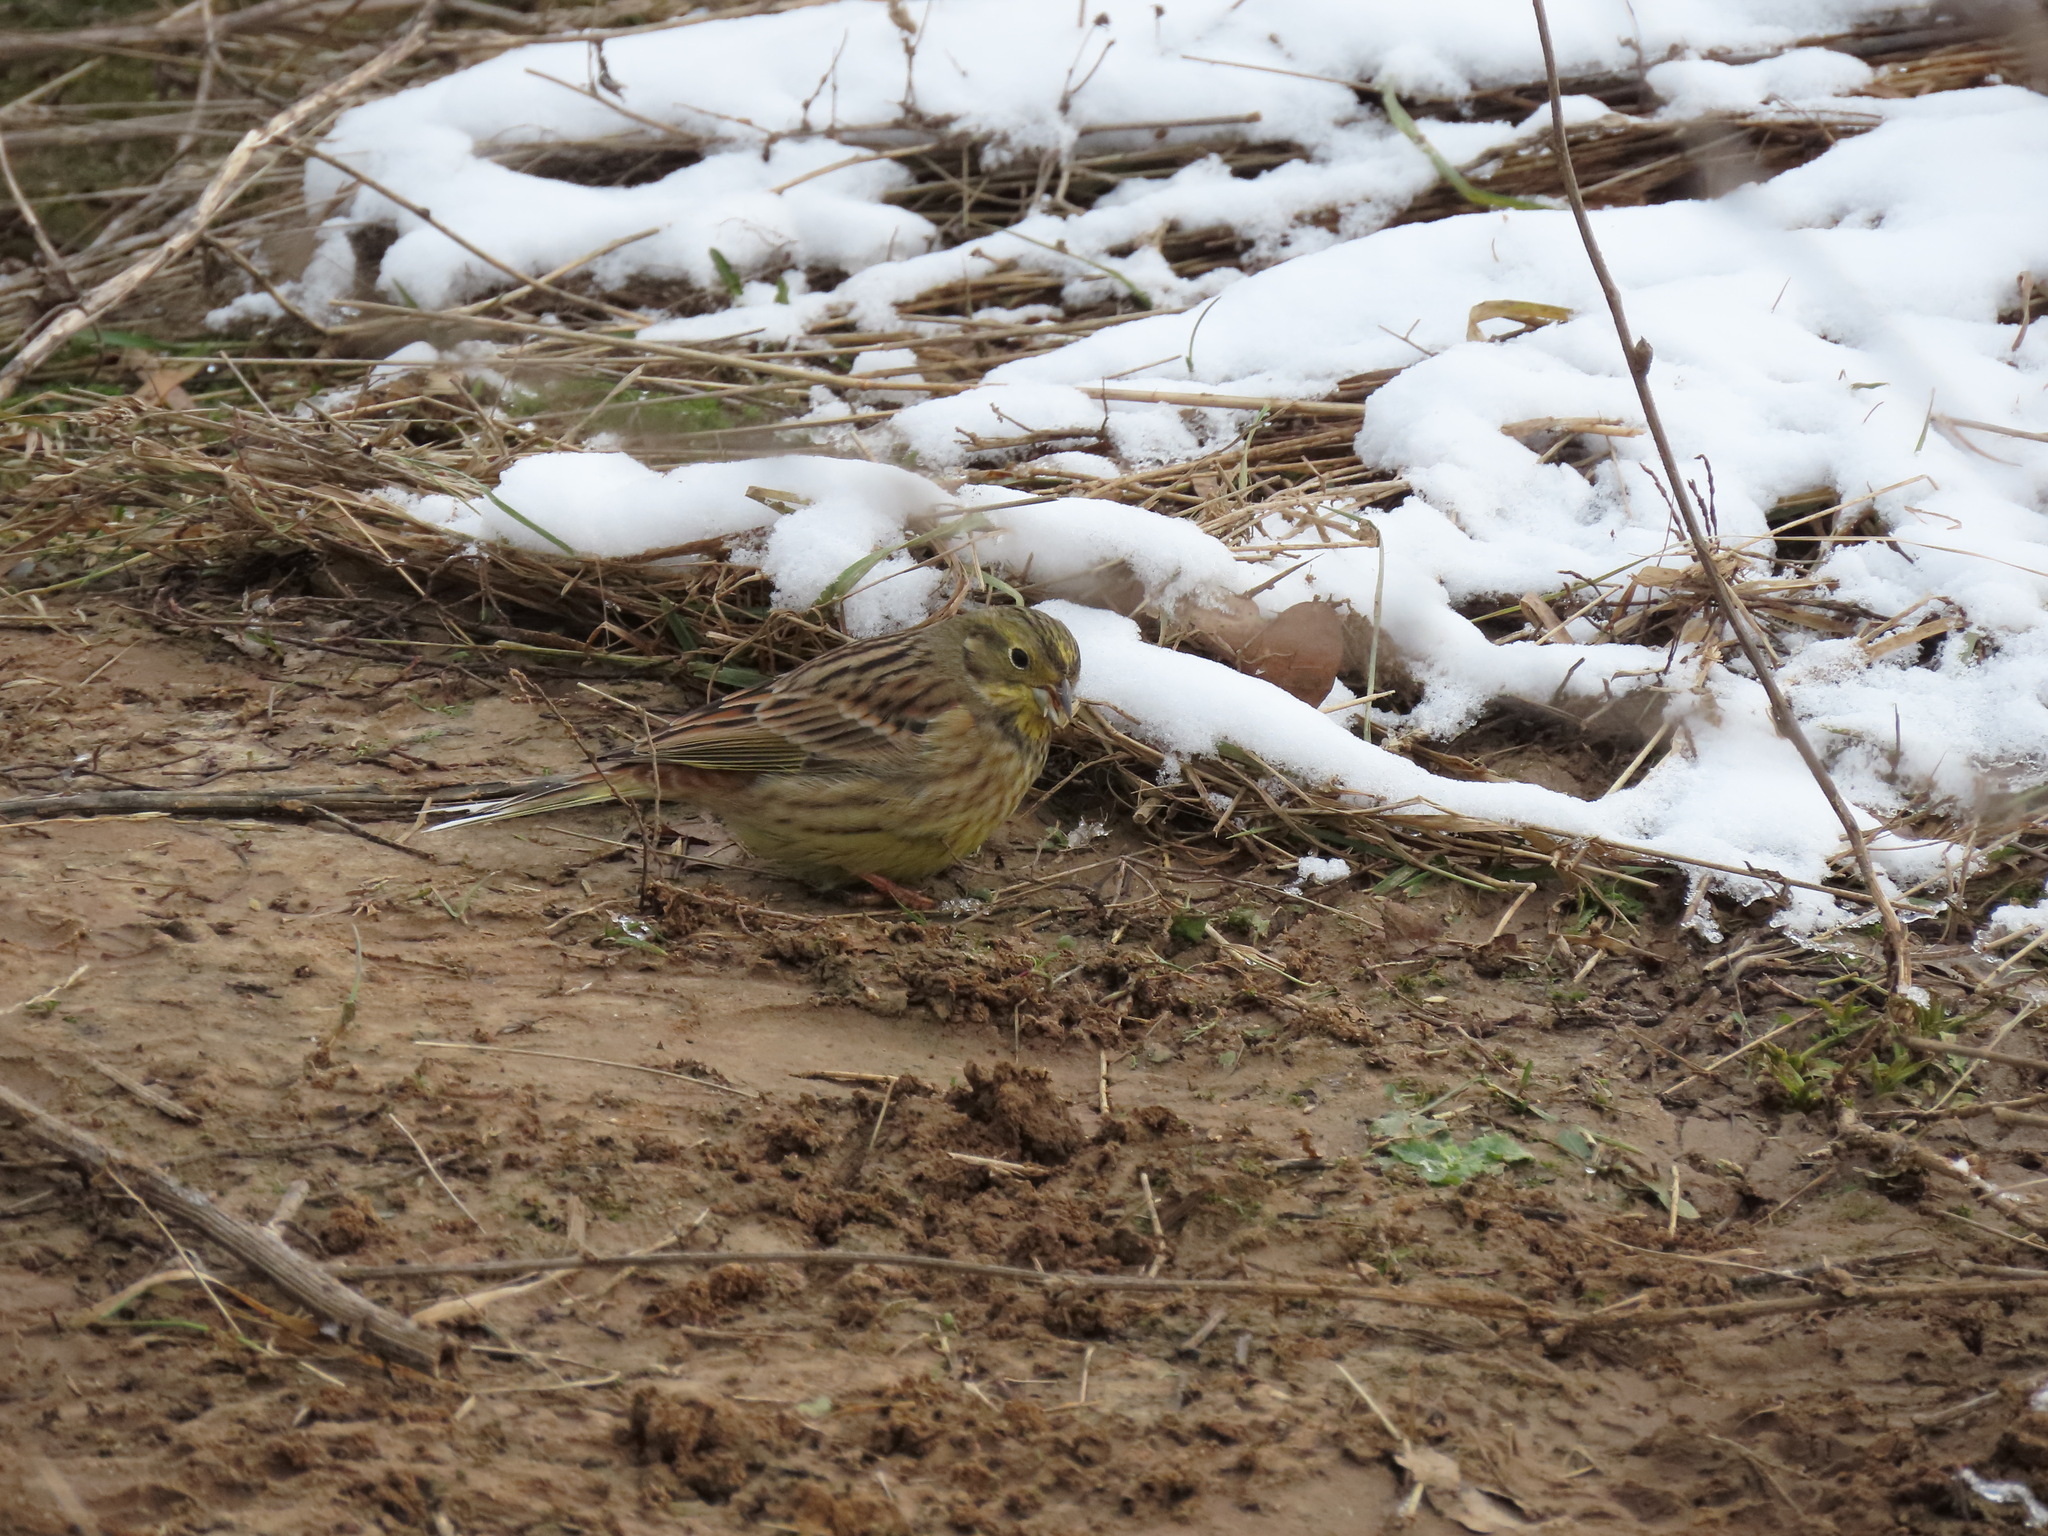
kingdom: Animalia
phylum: Chordata
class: Aves
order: Passeriformes
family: Emberizidae
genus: Emberiza
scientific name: Emberiza citrinella
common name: Yellowhammer
